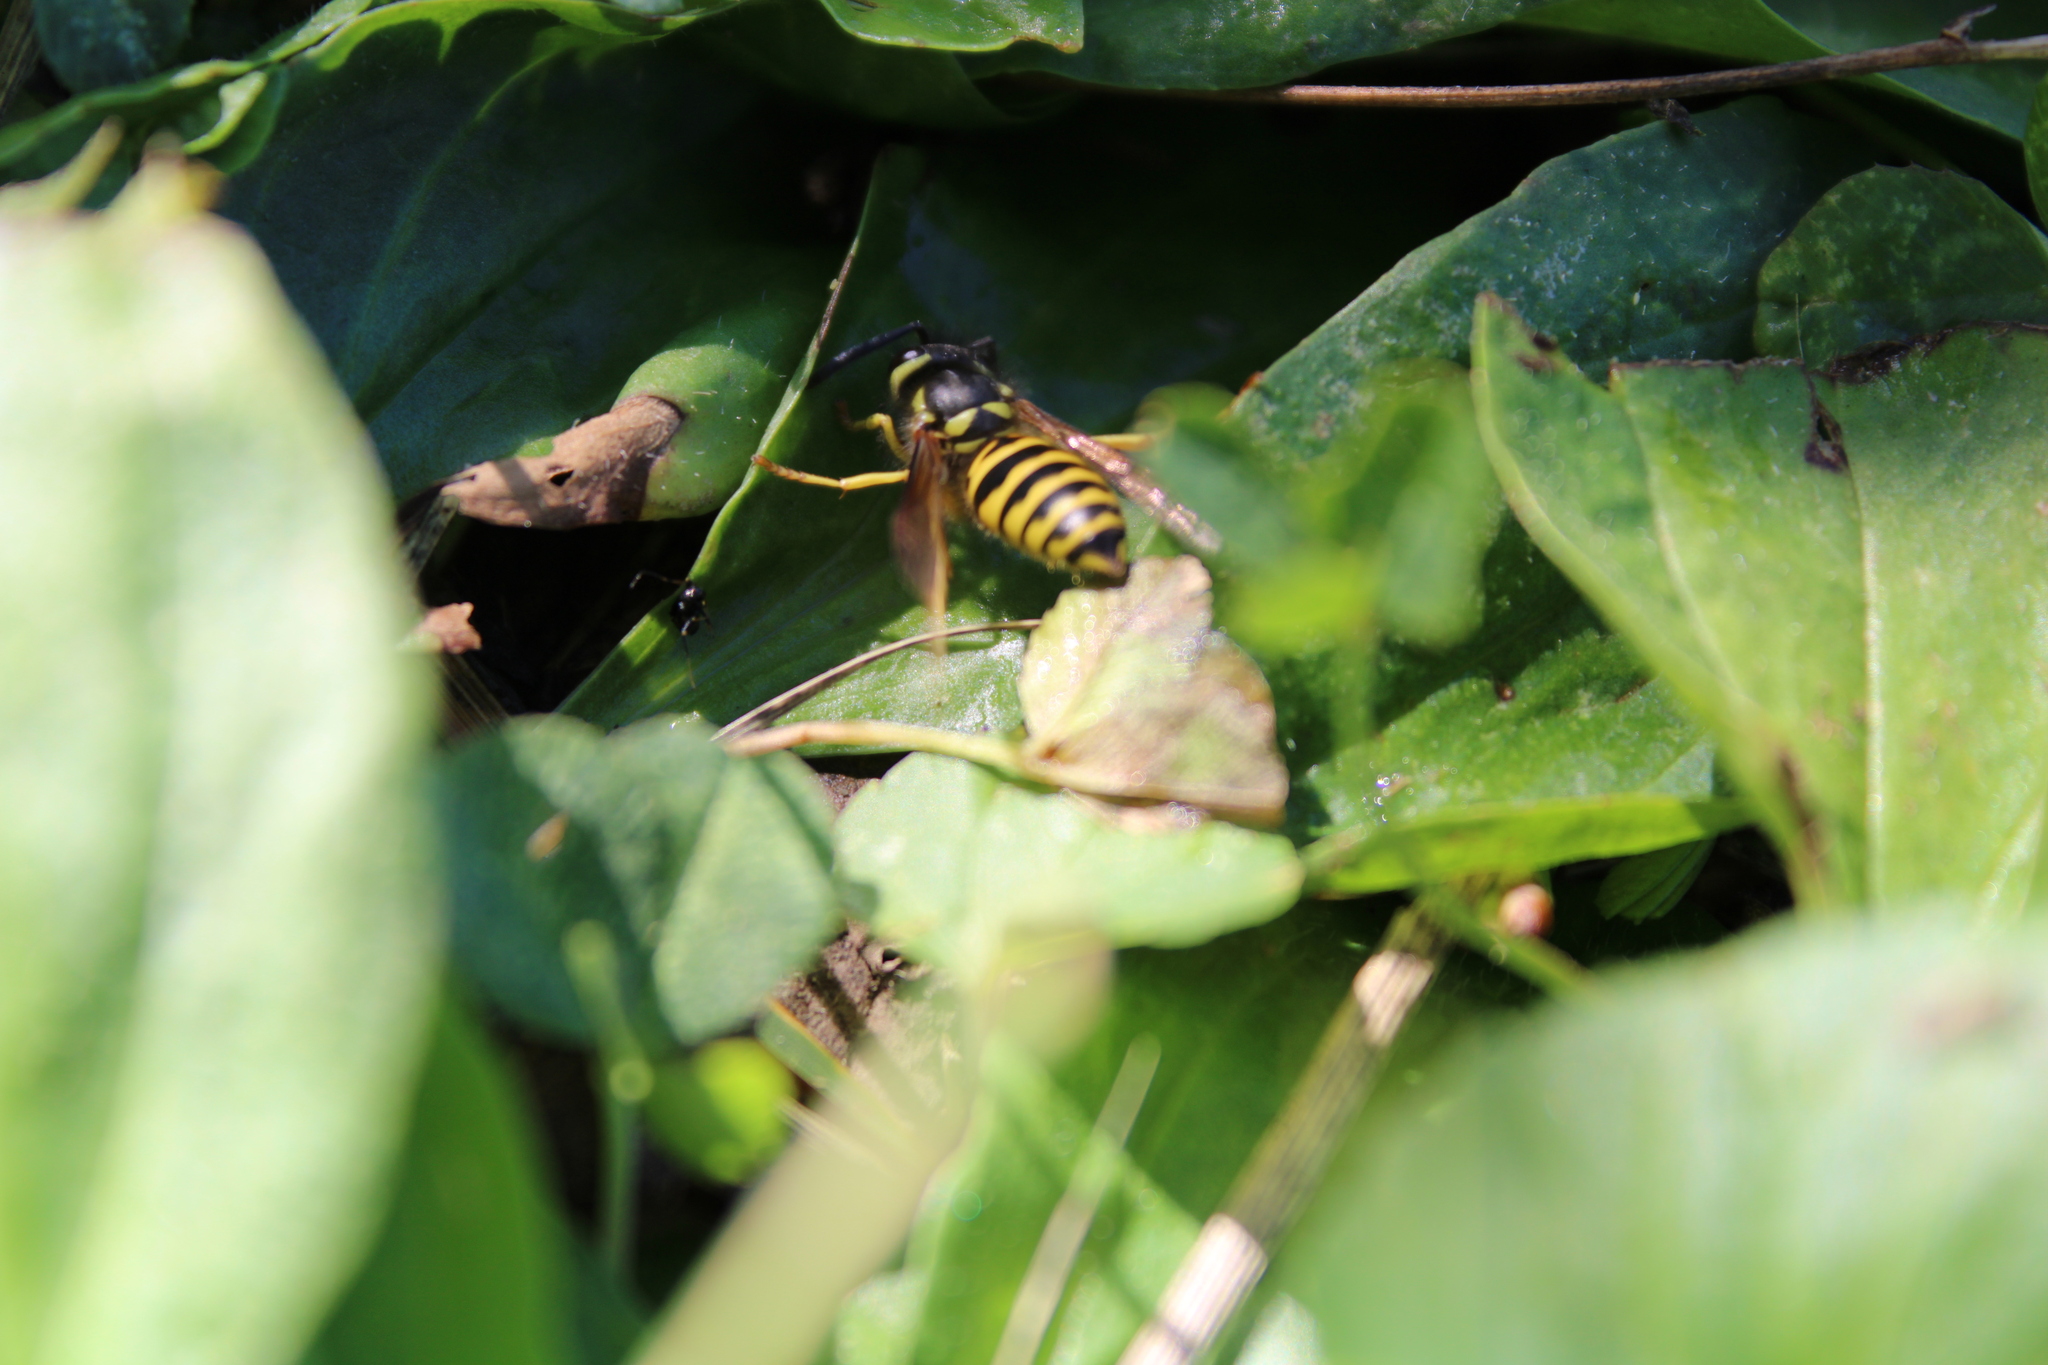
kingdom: Animalia
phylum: Arthropoda
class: Insecta
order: Hymenoptera
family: Vespidae
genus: Vespula
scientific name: Vespula maculifrons
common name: Eastern yellowjacket
